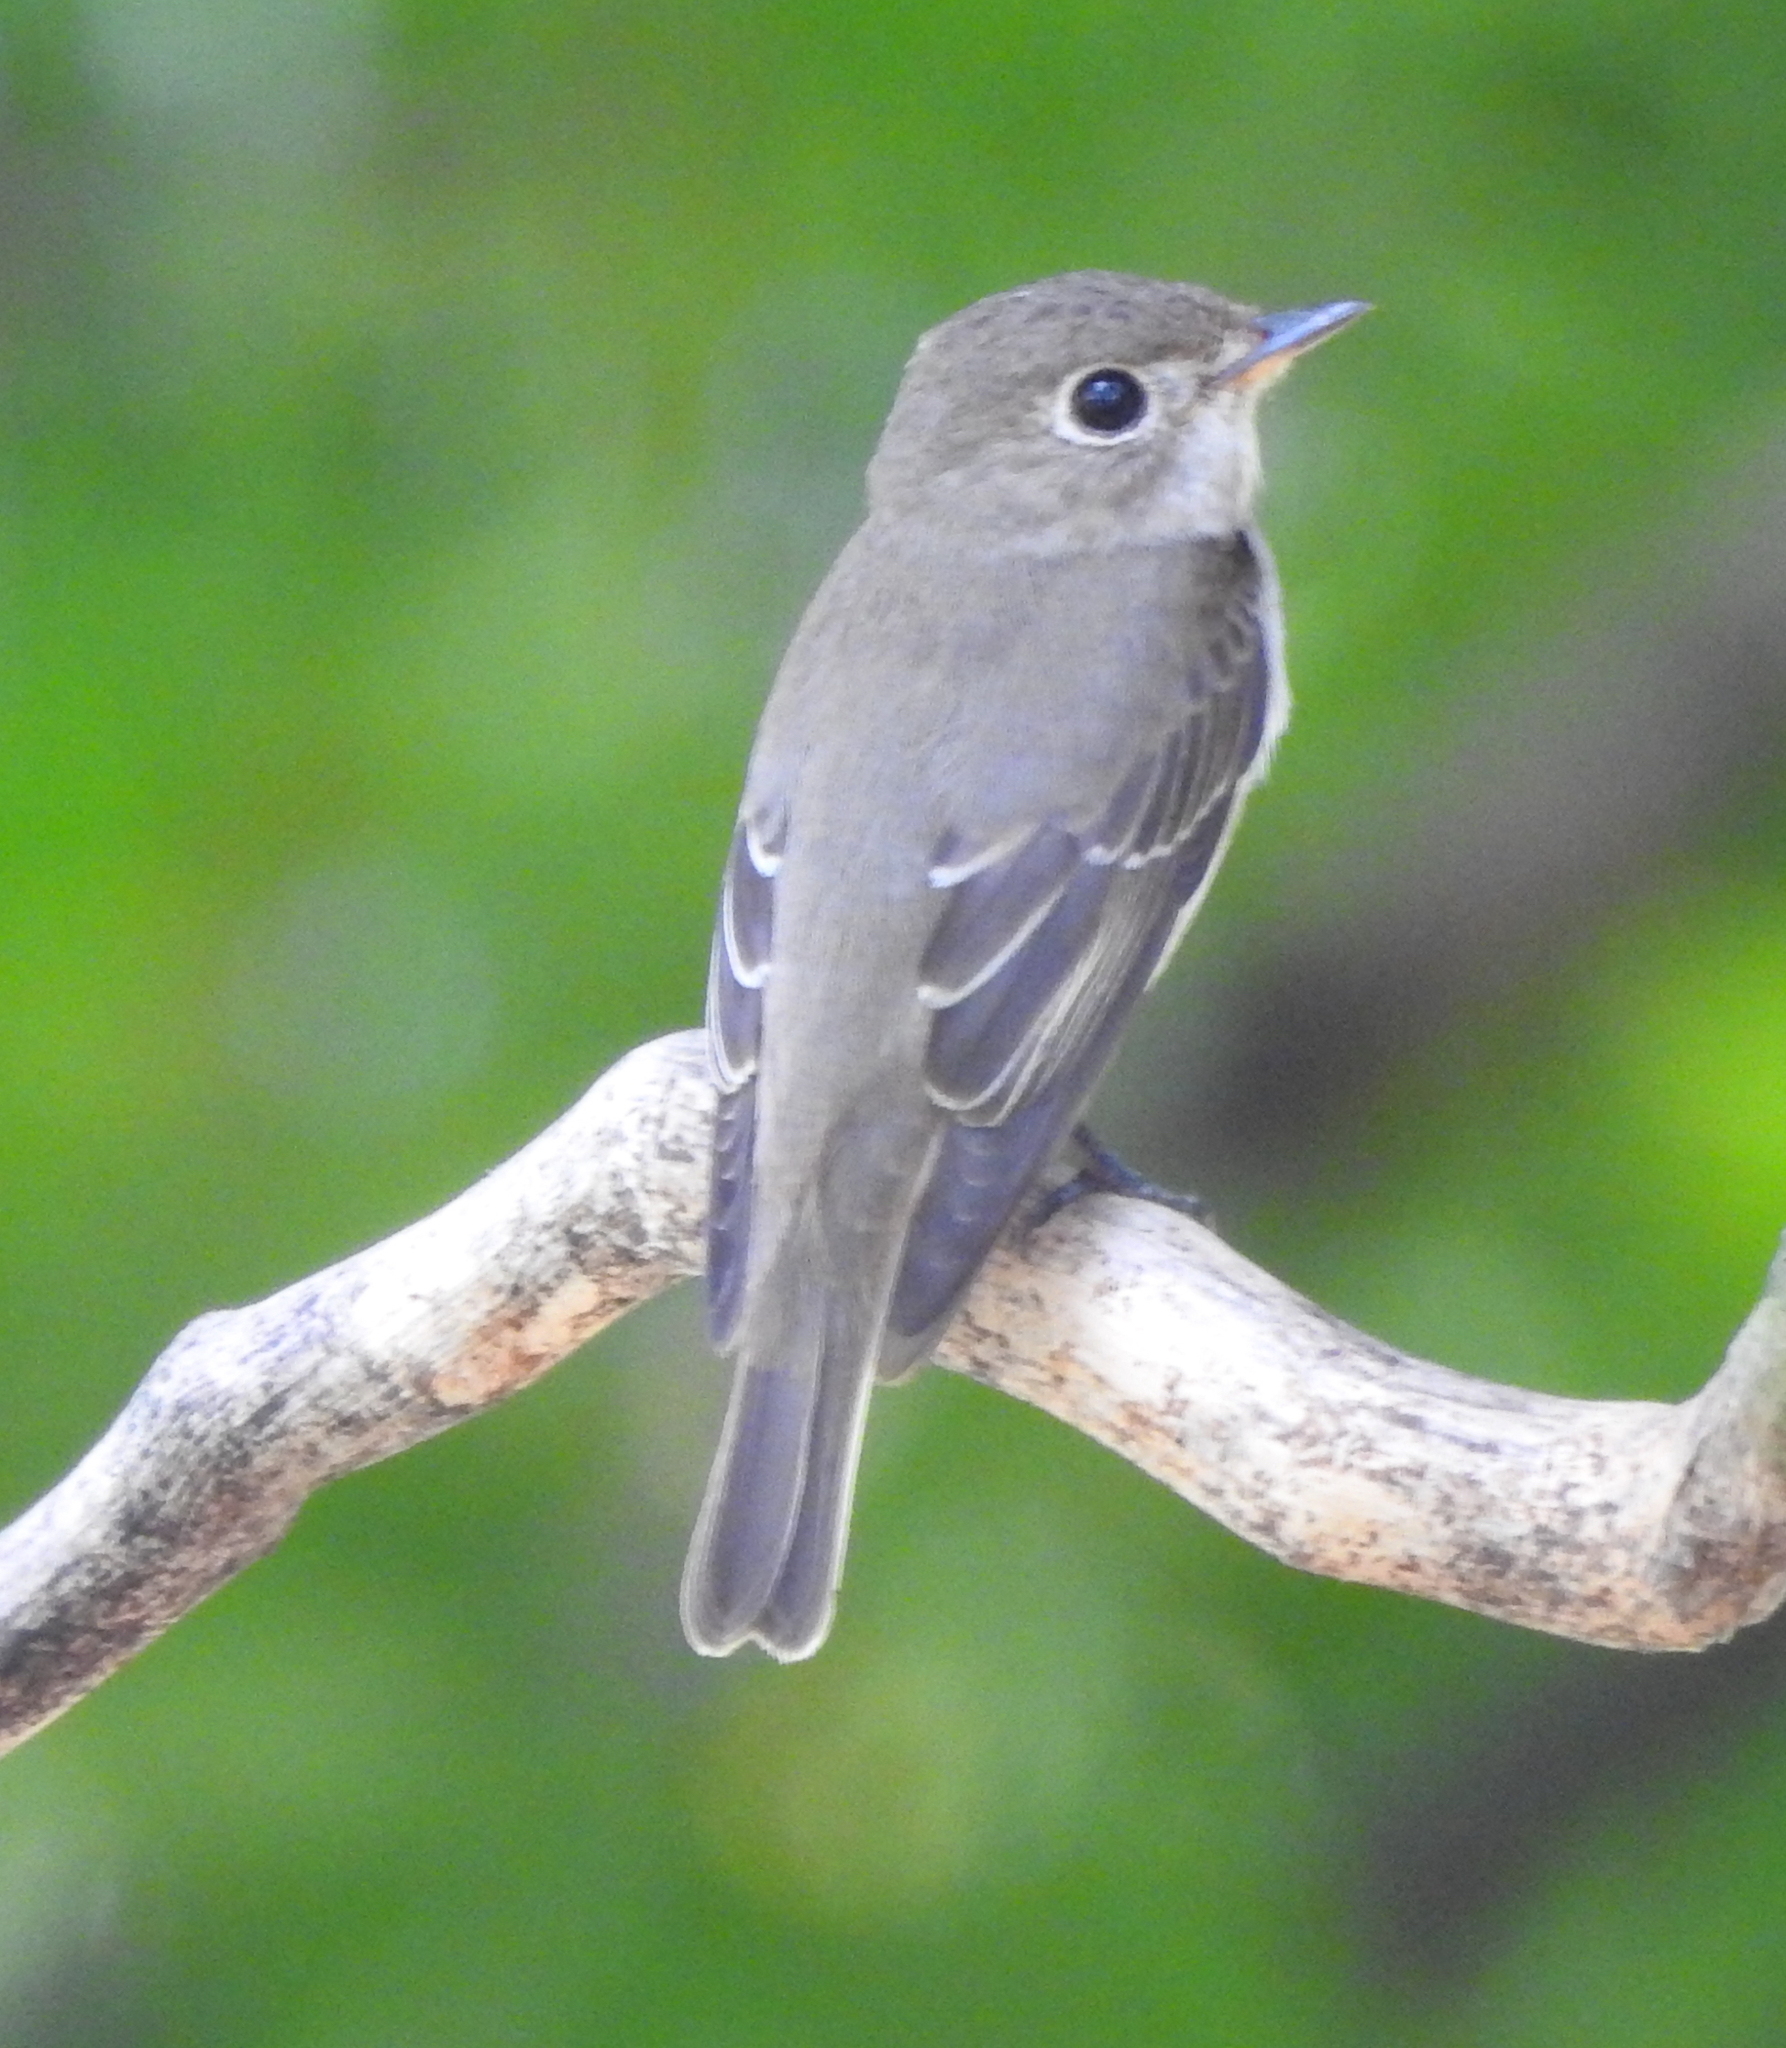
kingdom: Animalia
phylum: Chordata
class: Aves
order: Passeriformes
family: Muscicapidae
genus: Muscicapa
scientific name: Muscicapa latirostris
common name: Asian brown flycatcher
